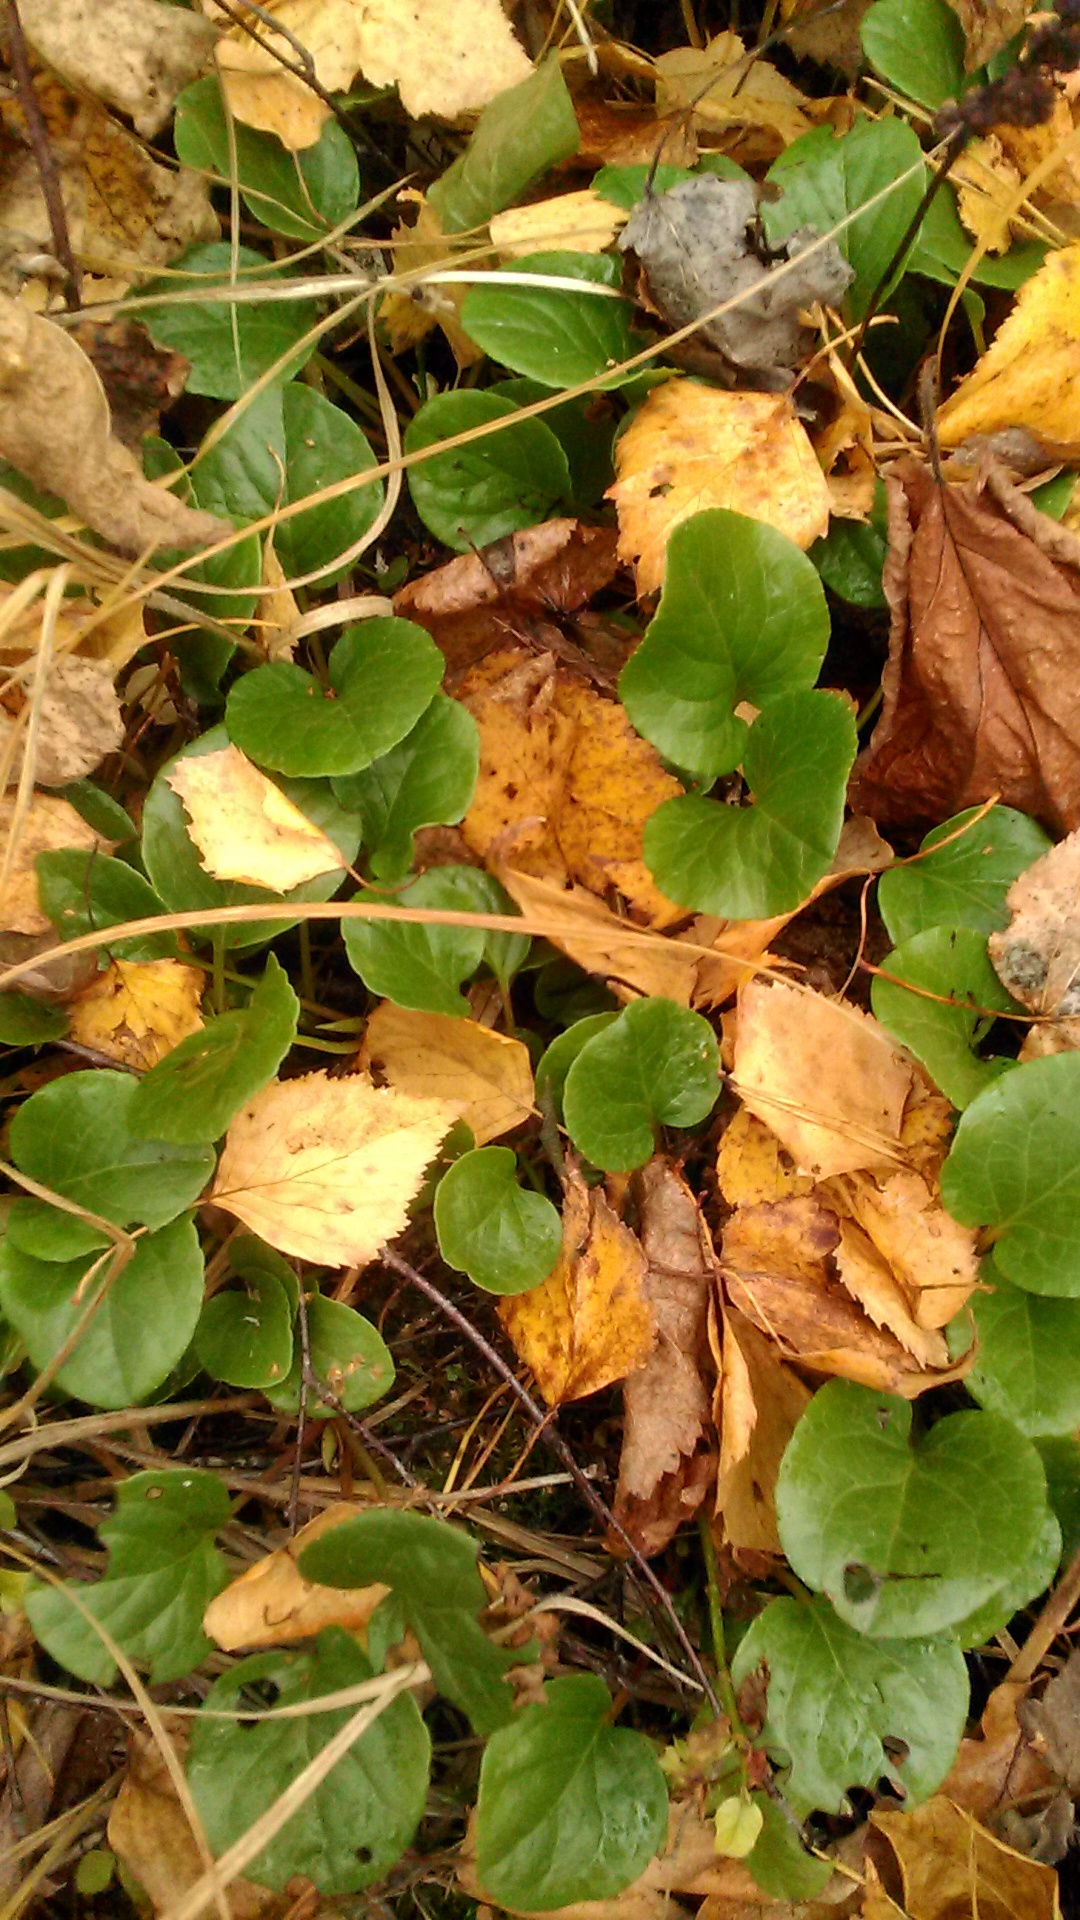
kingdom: Plantae
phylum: Tracheophyta
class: Magnoliopsida
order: Ericales
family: Ericaceae
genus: Pyrola
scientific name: Pyrola
